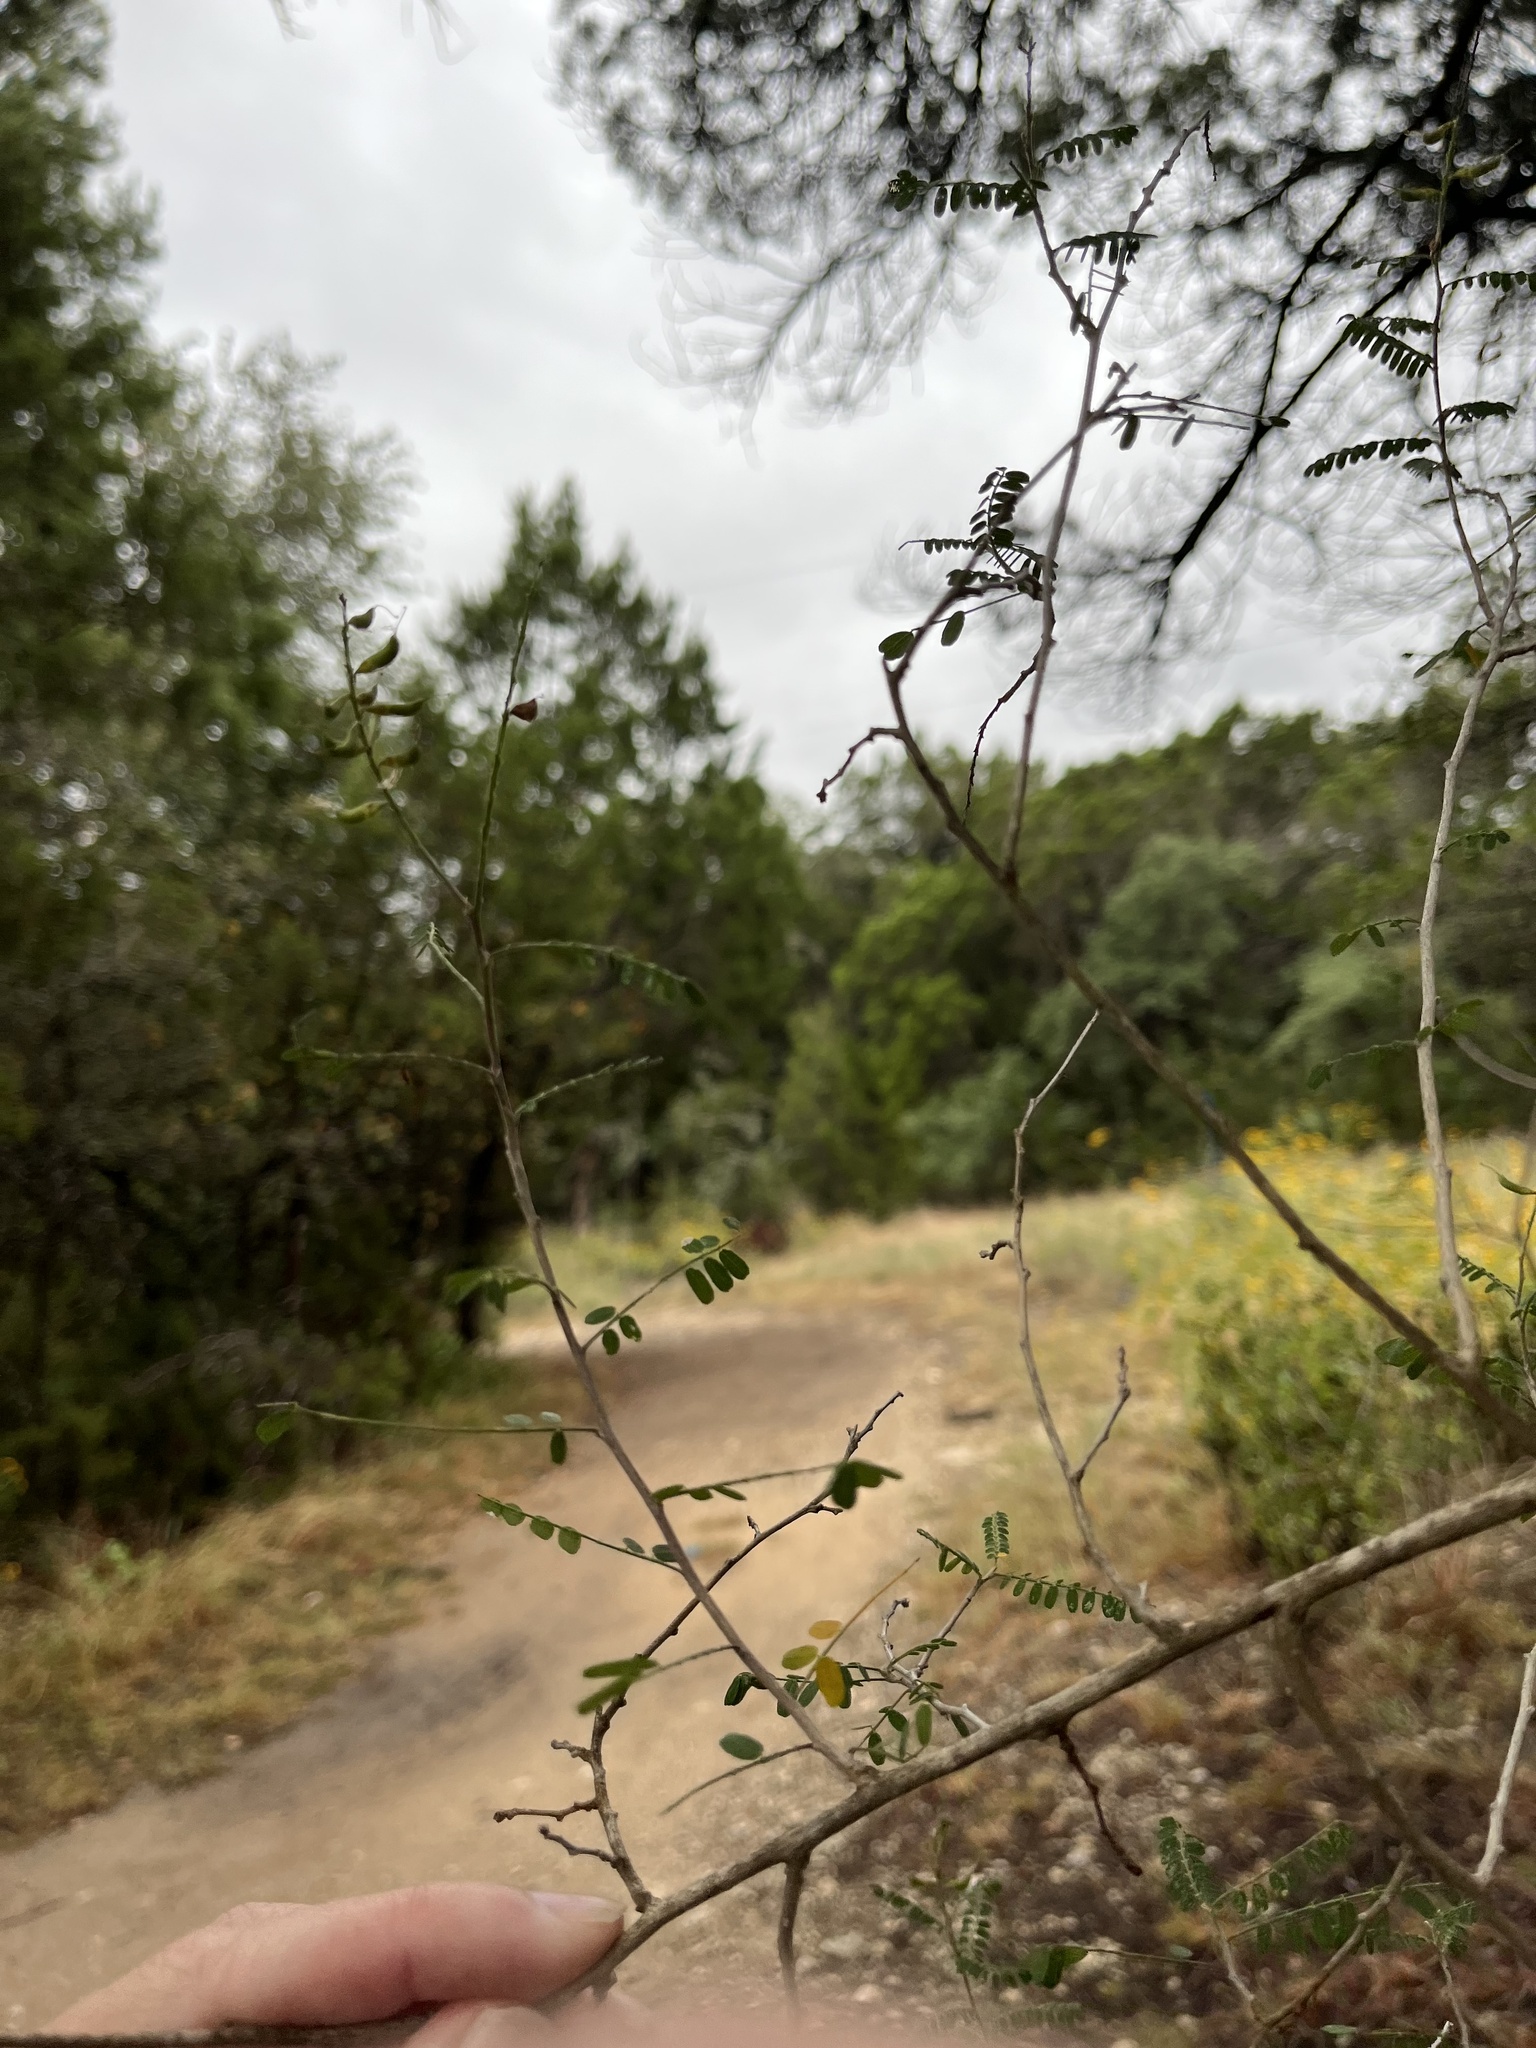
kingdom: Plantae
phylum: Tracheophyta
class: Magnoliopsida
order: Fabales
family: Fabaceae
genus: Eysenhardtia
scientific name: Eysenhardtia texana
